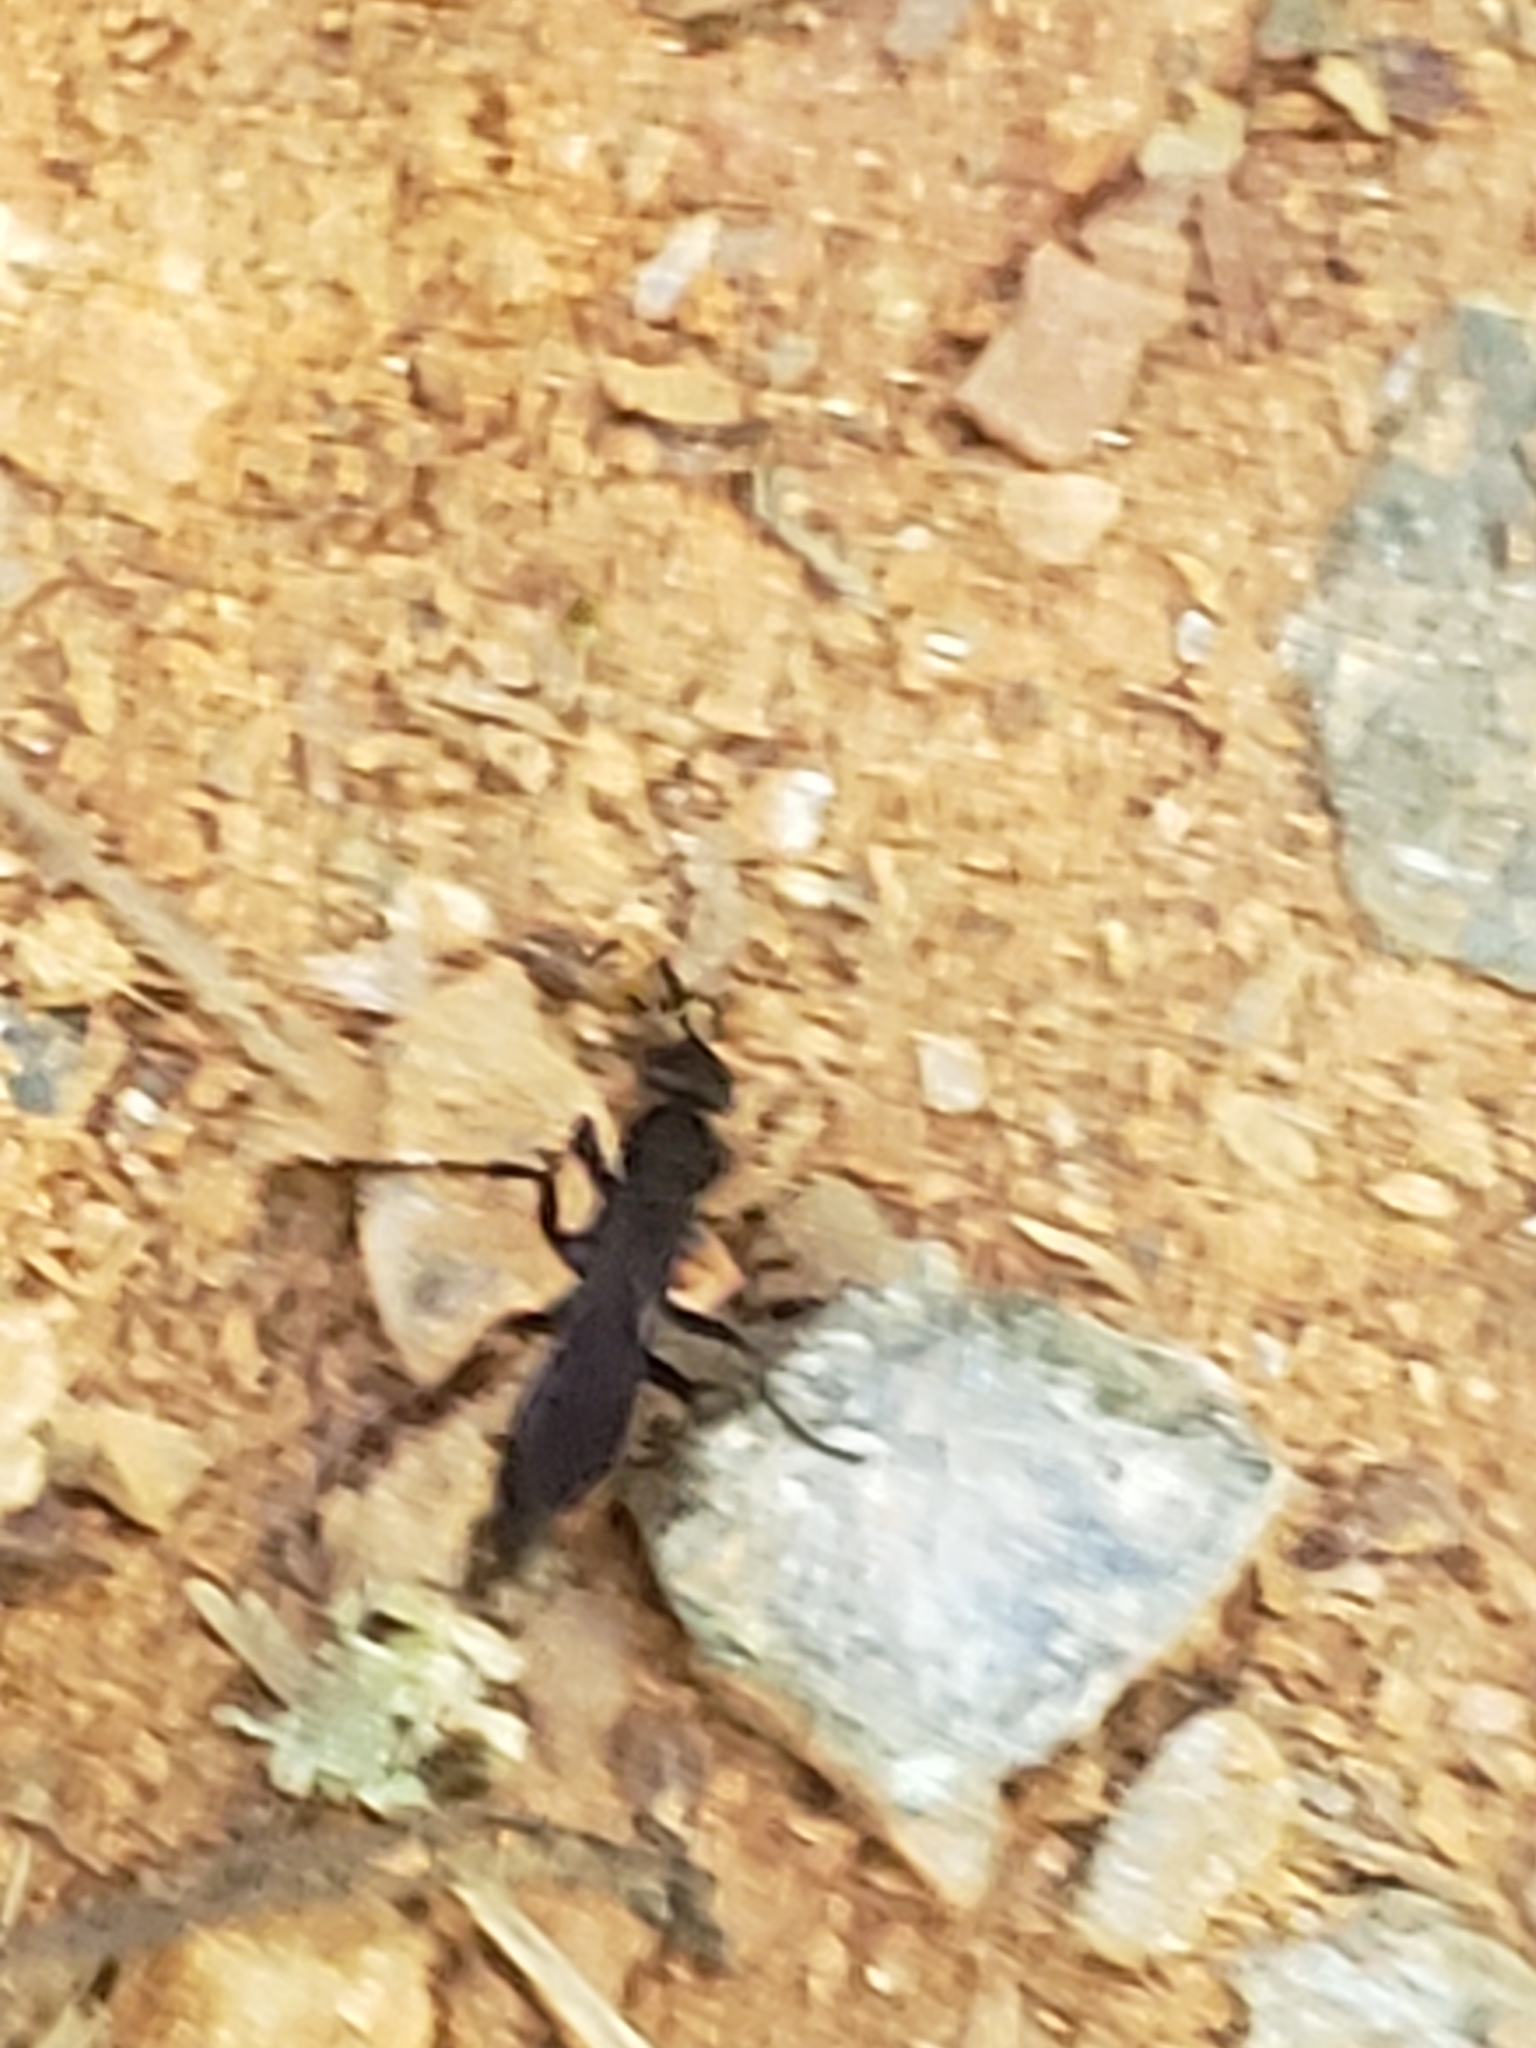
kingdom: Animalia
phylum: Arthropoda
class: Insecta
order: Hymenoptera
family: Pompilidae
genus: Aporus
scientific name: Aporus niger
